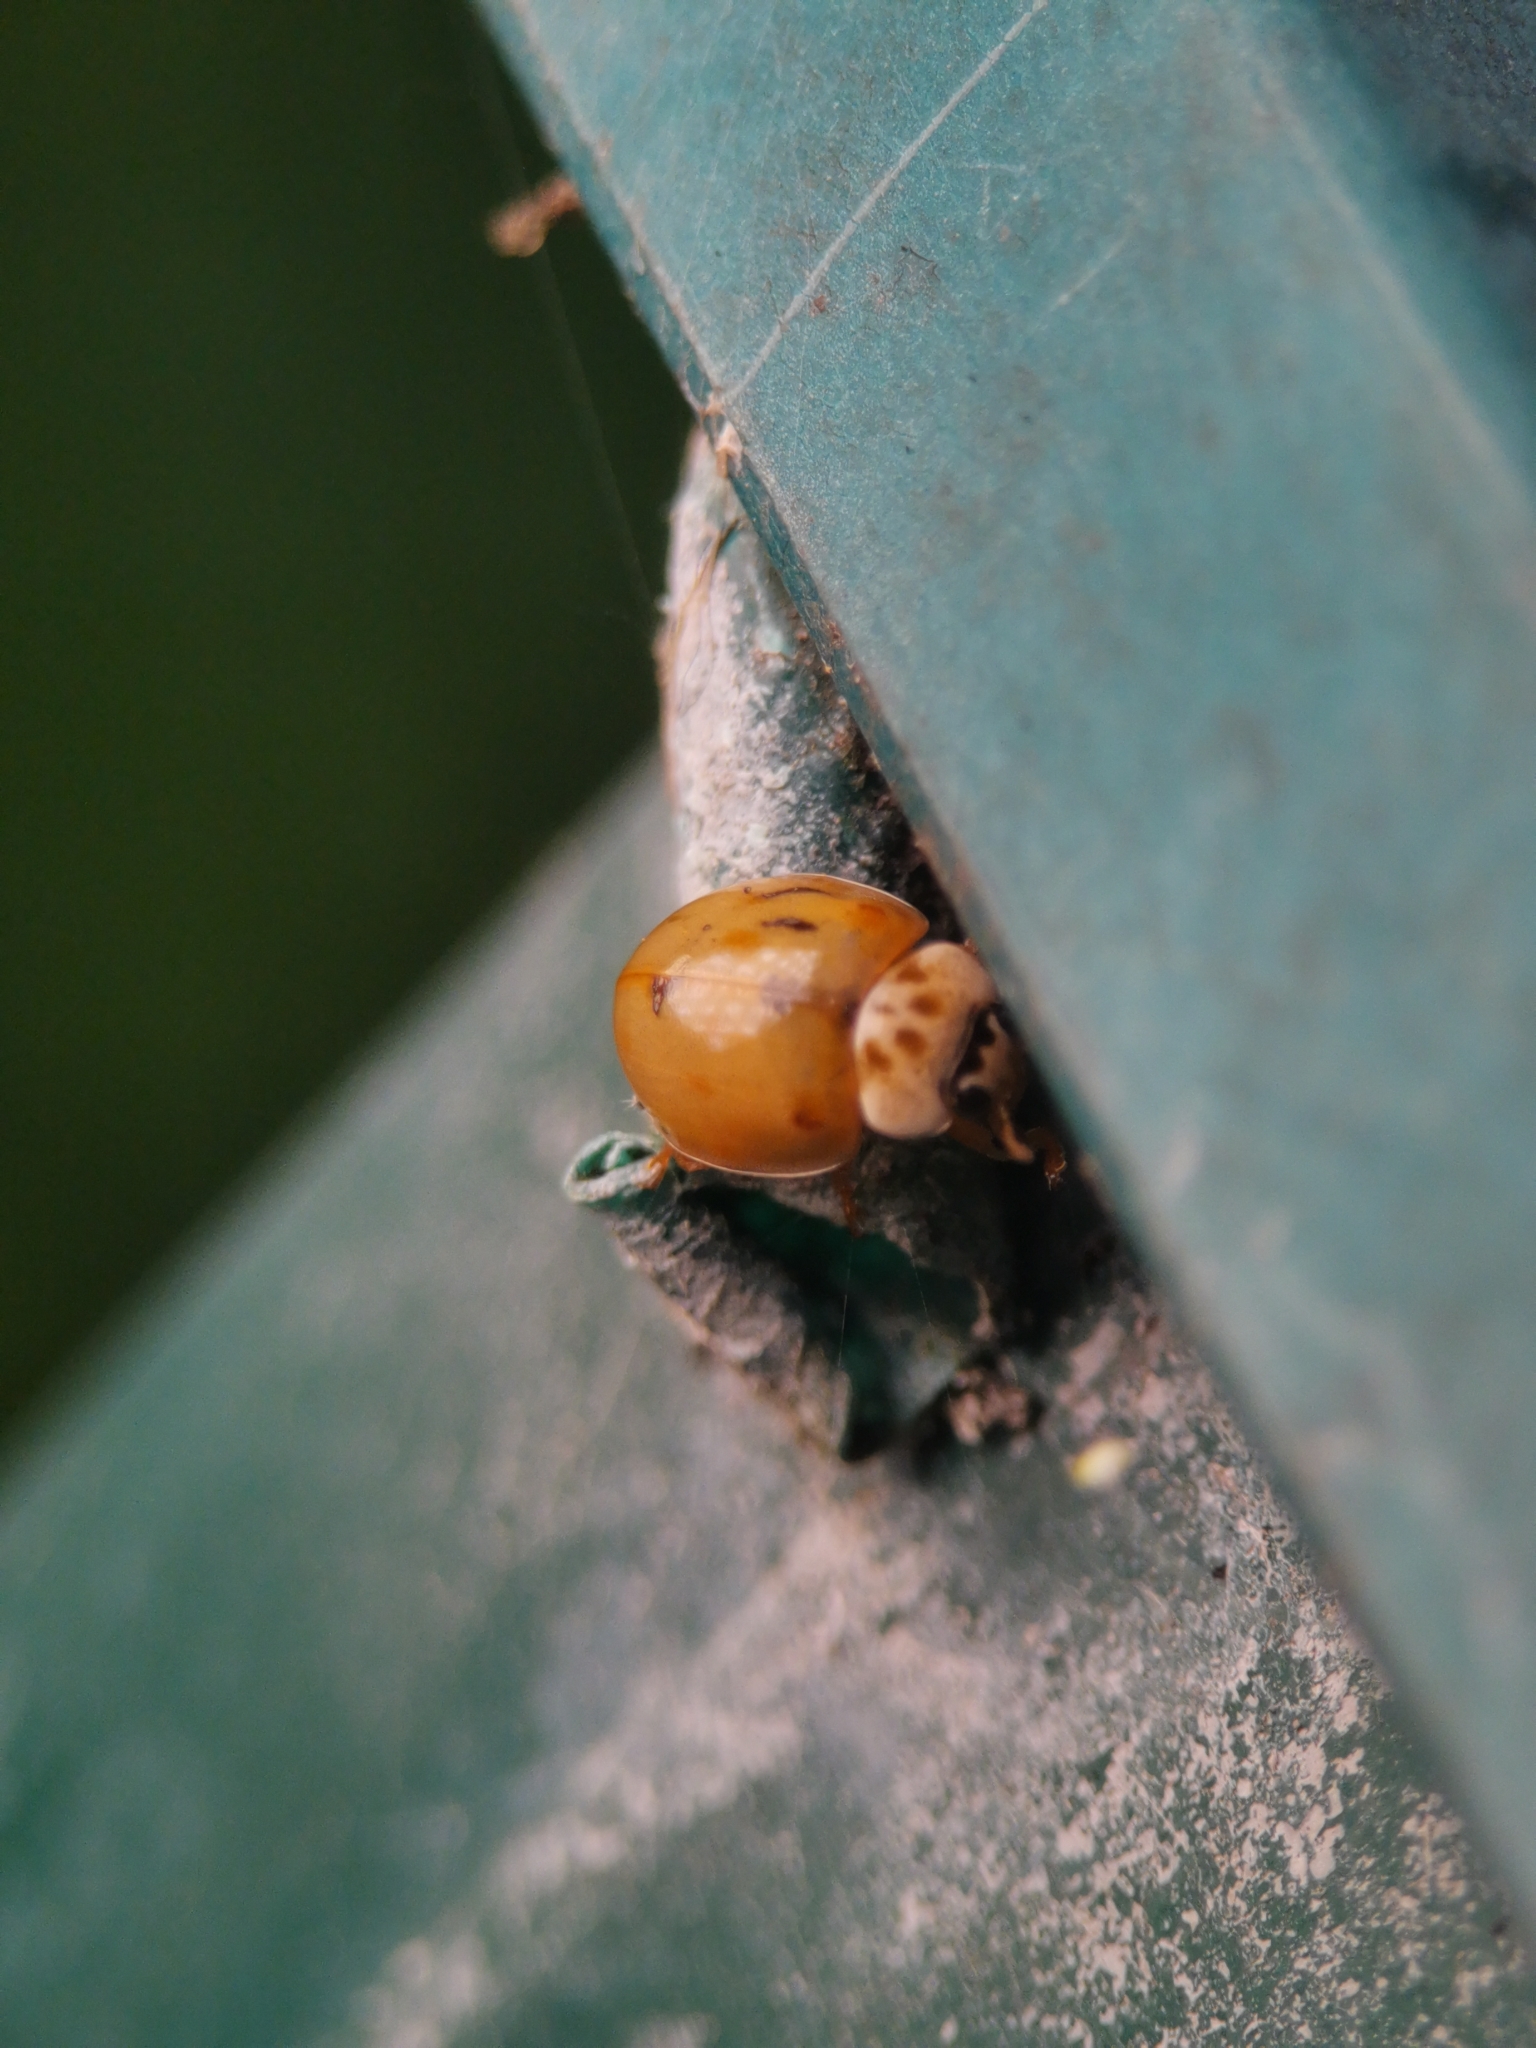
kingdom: Animalia
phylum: Arthropoda
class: Insecta
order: Coleoptera
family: Coccinellidae
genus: Adalia
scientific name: Adalia decempunctata
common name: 10-spot ladybird
